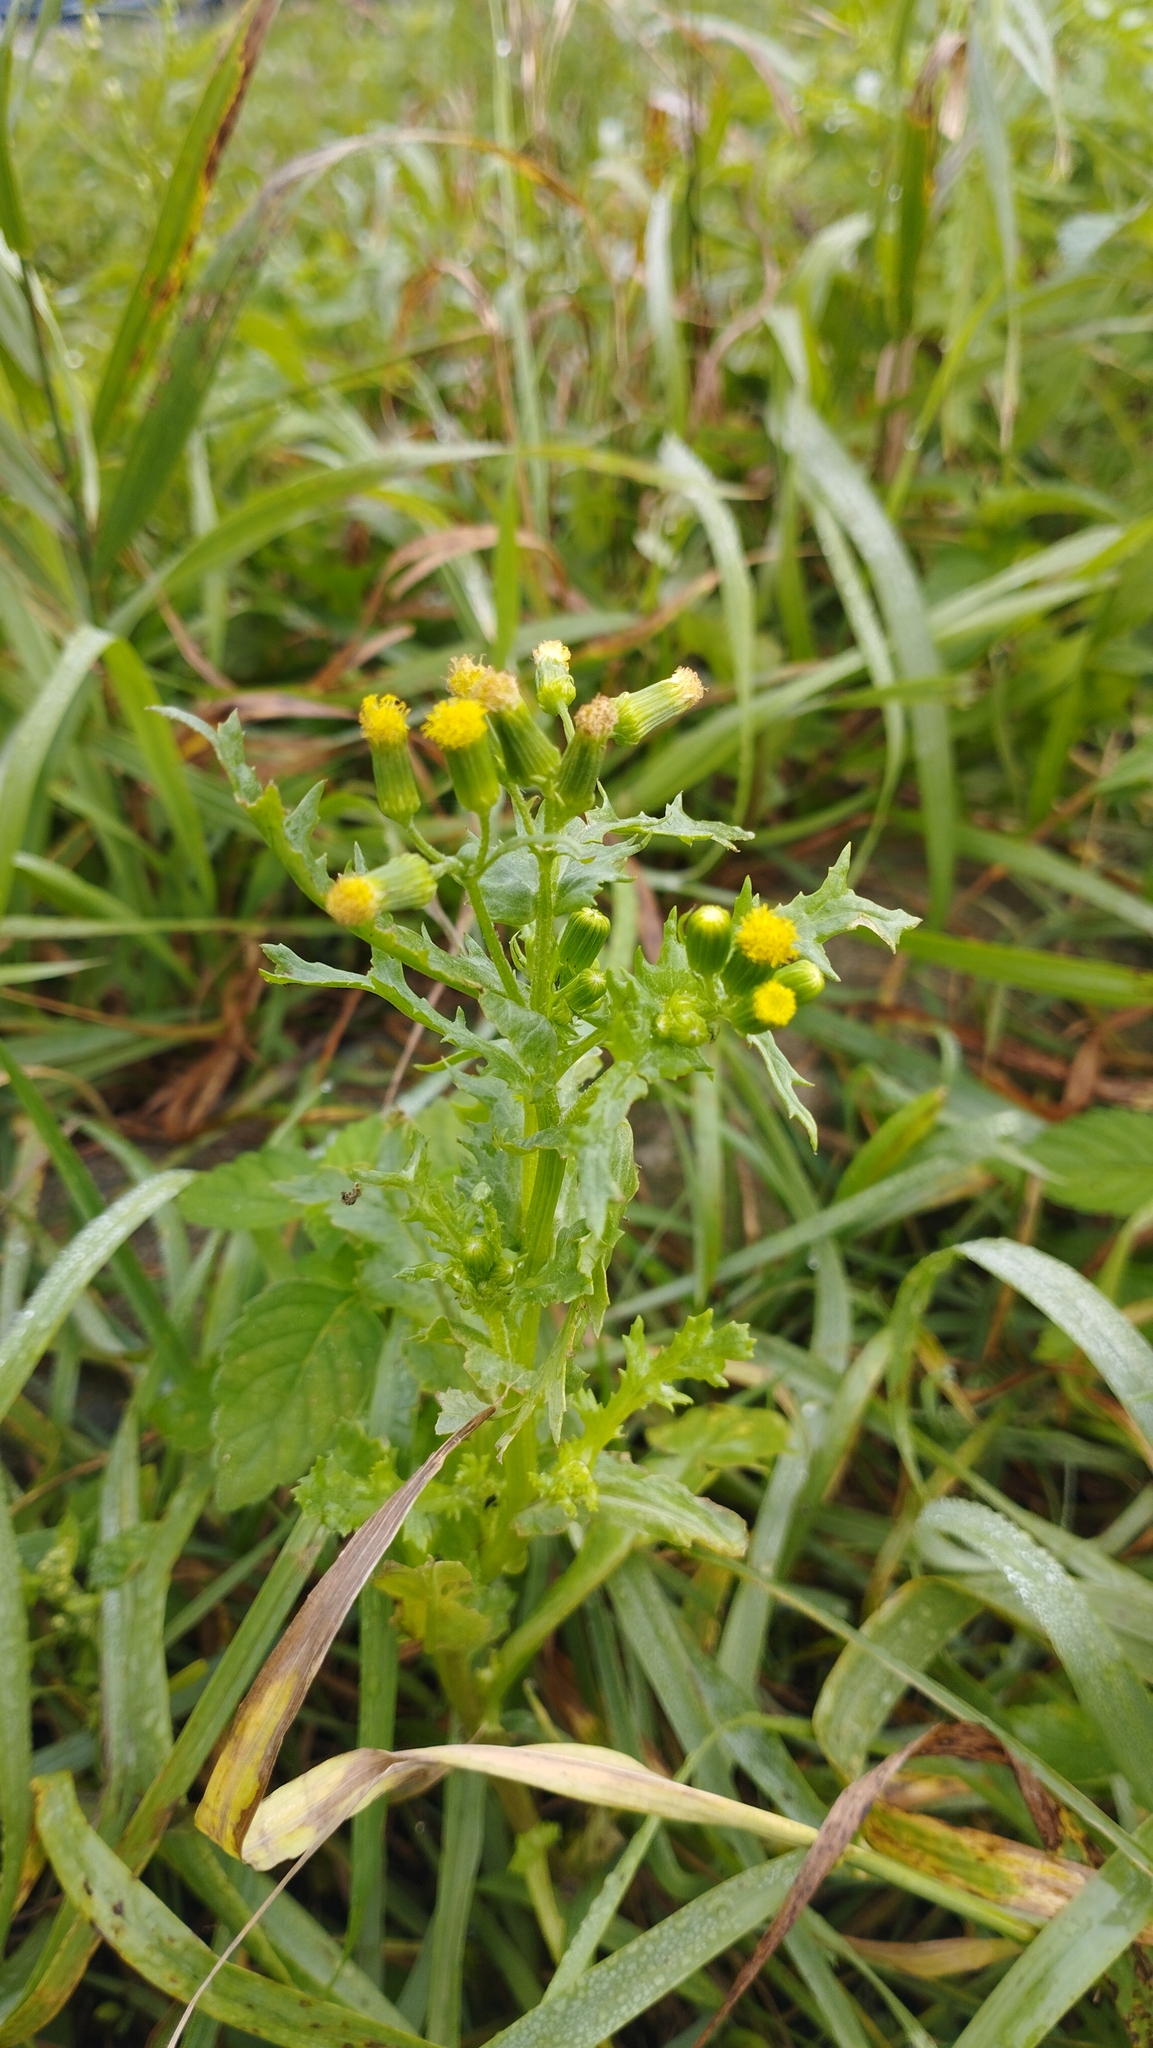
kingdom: Plantae
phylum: Tracheophyta
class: Magnoliopsida
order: Asterales
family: Asteraceae
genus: Senecio
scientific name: Senecio vulgaris
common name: Old-man-in-the-spring
